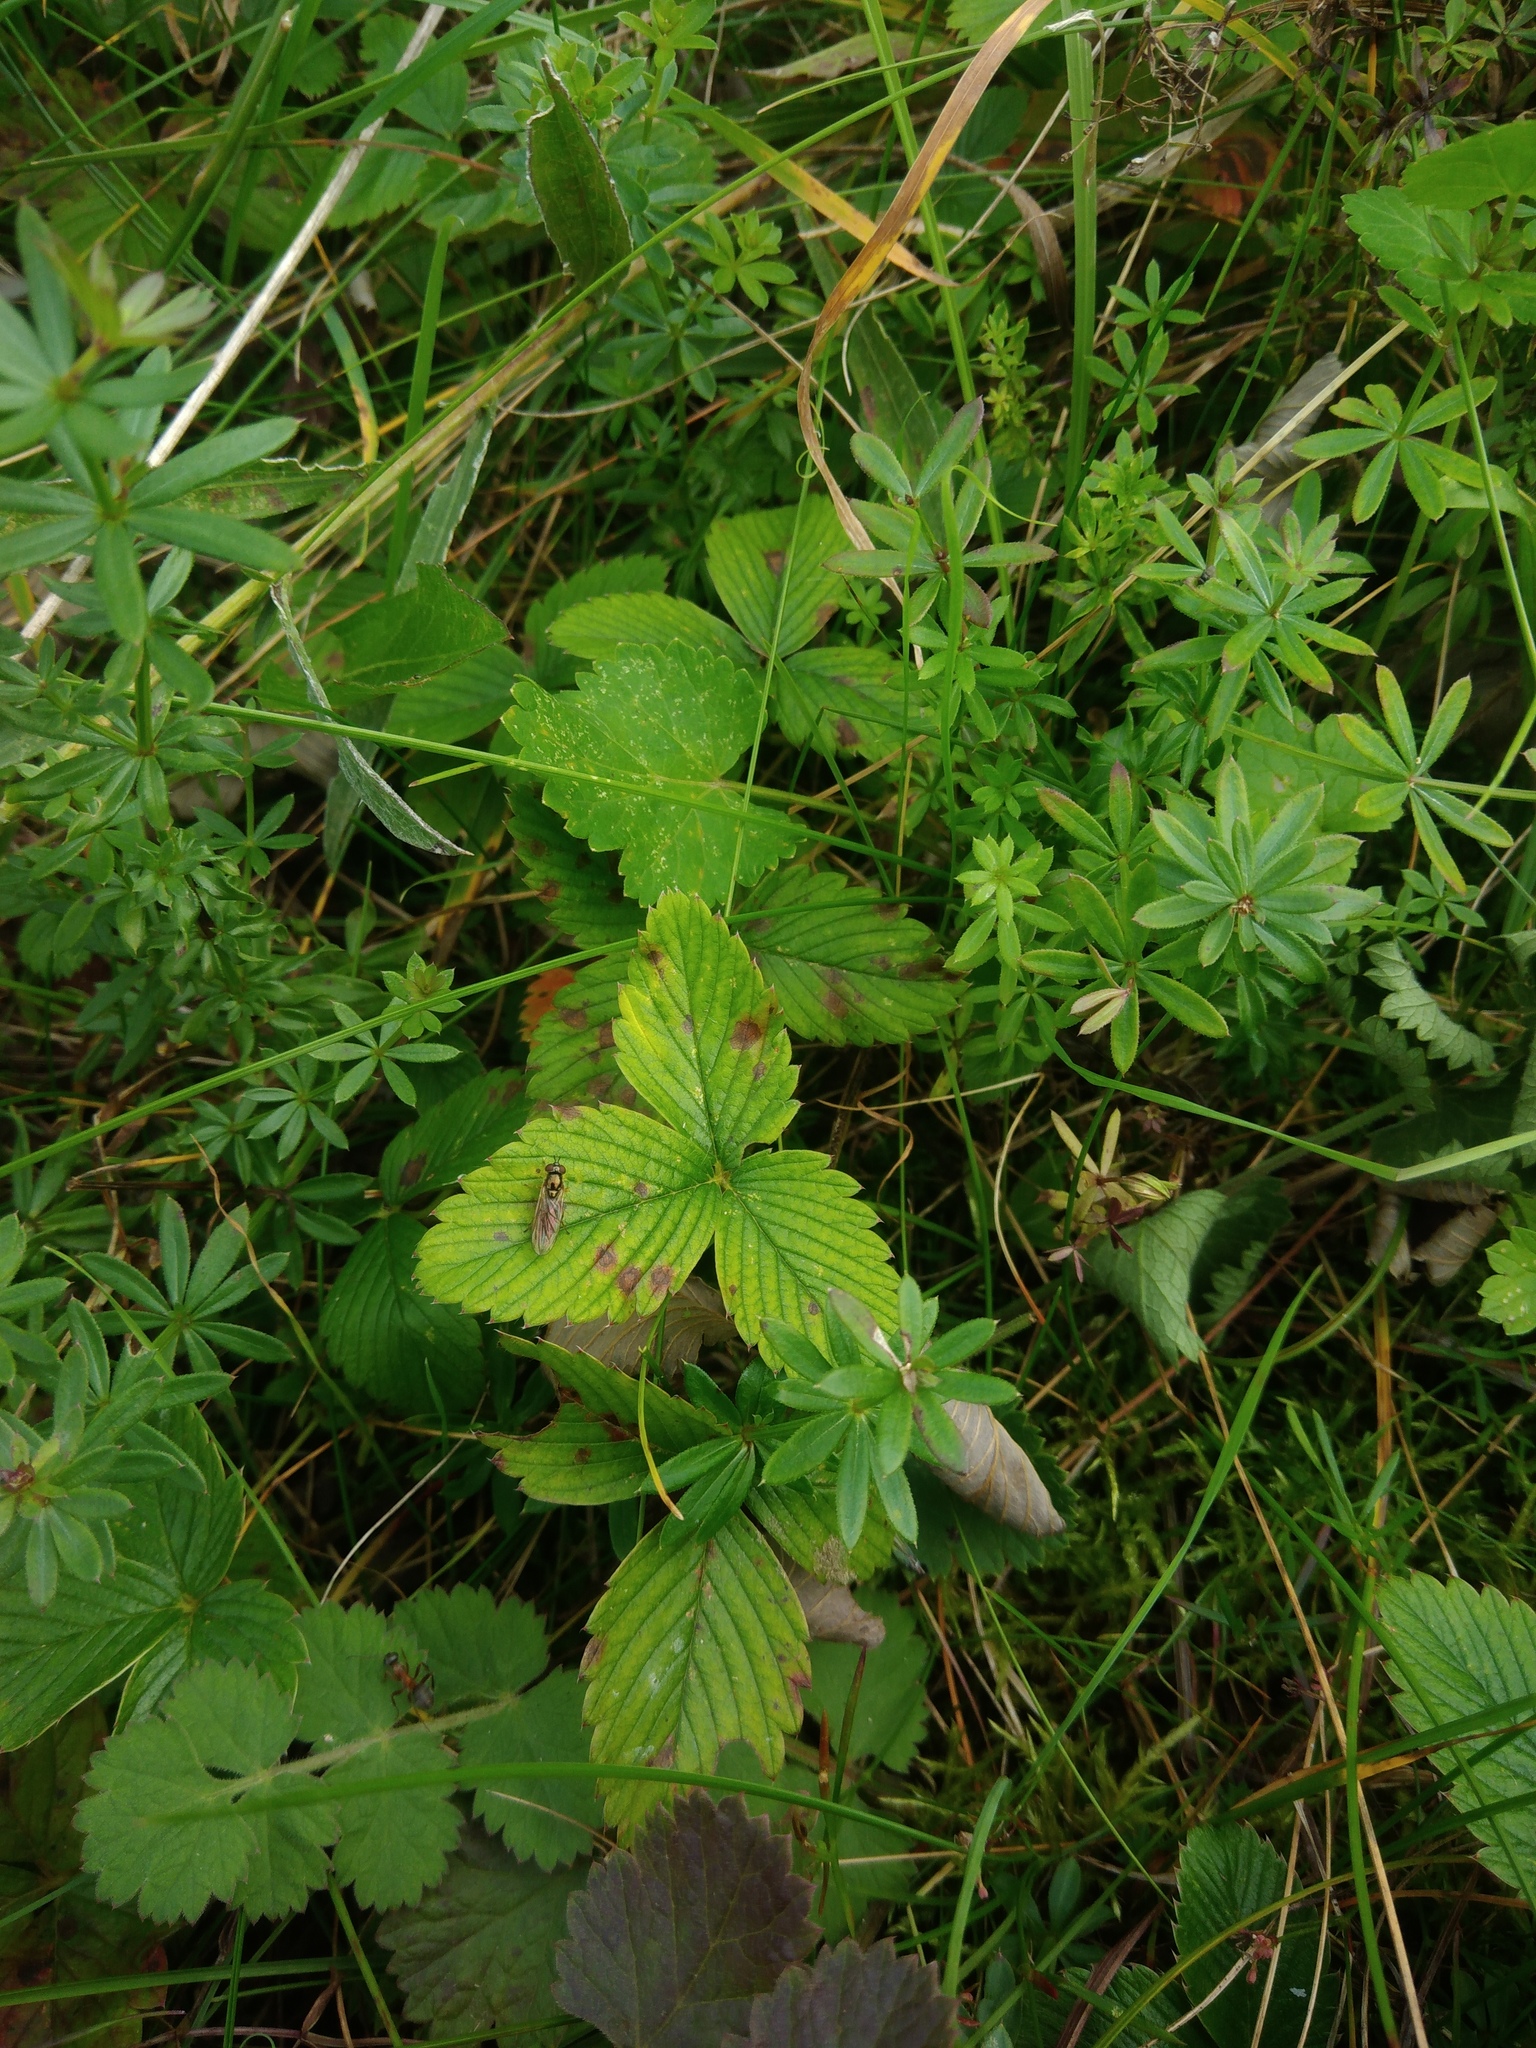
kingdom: Plantae
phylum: Tracheophyta
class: Magnoliopsida
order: Rosales
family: Rosaceae
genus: Fragaria
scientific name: Fragaria viridis
